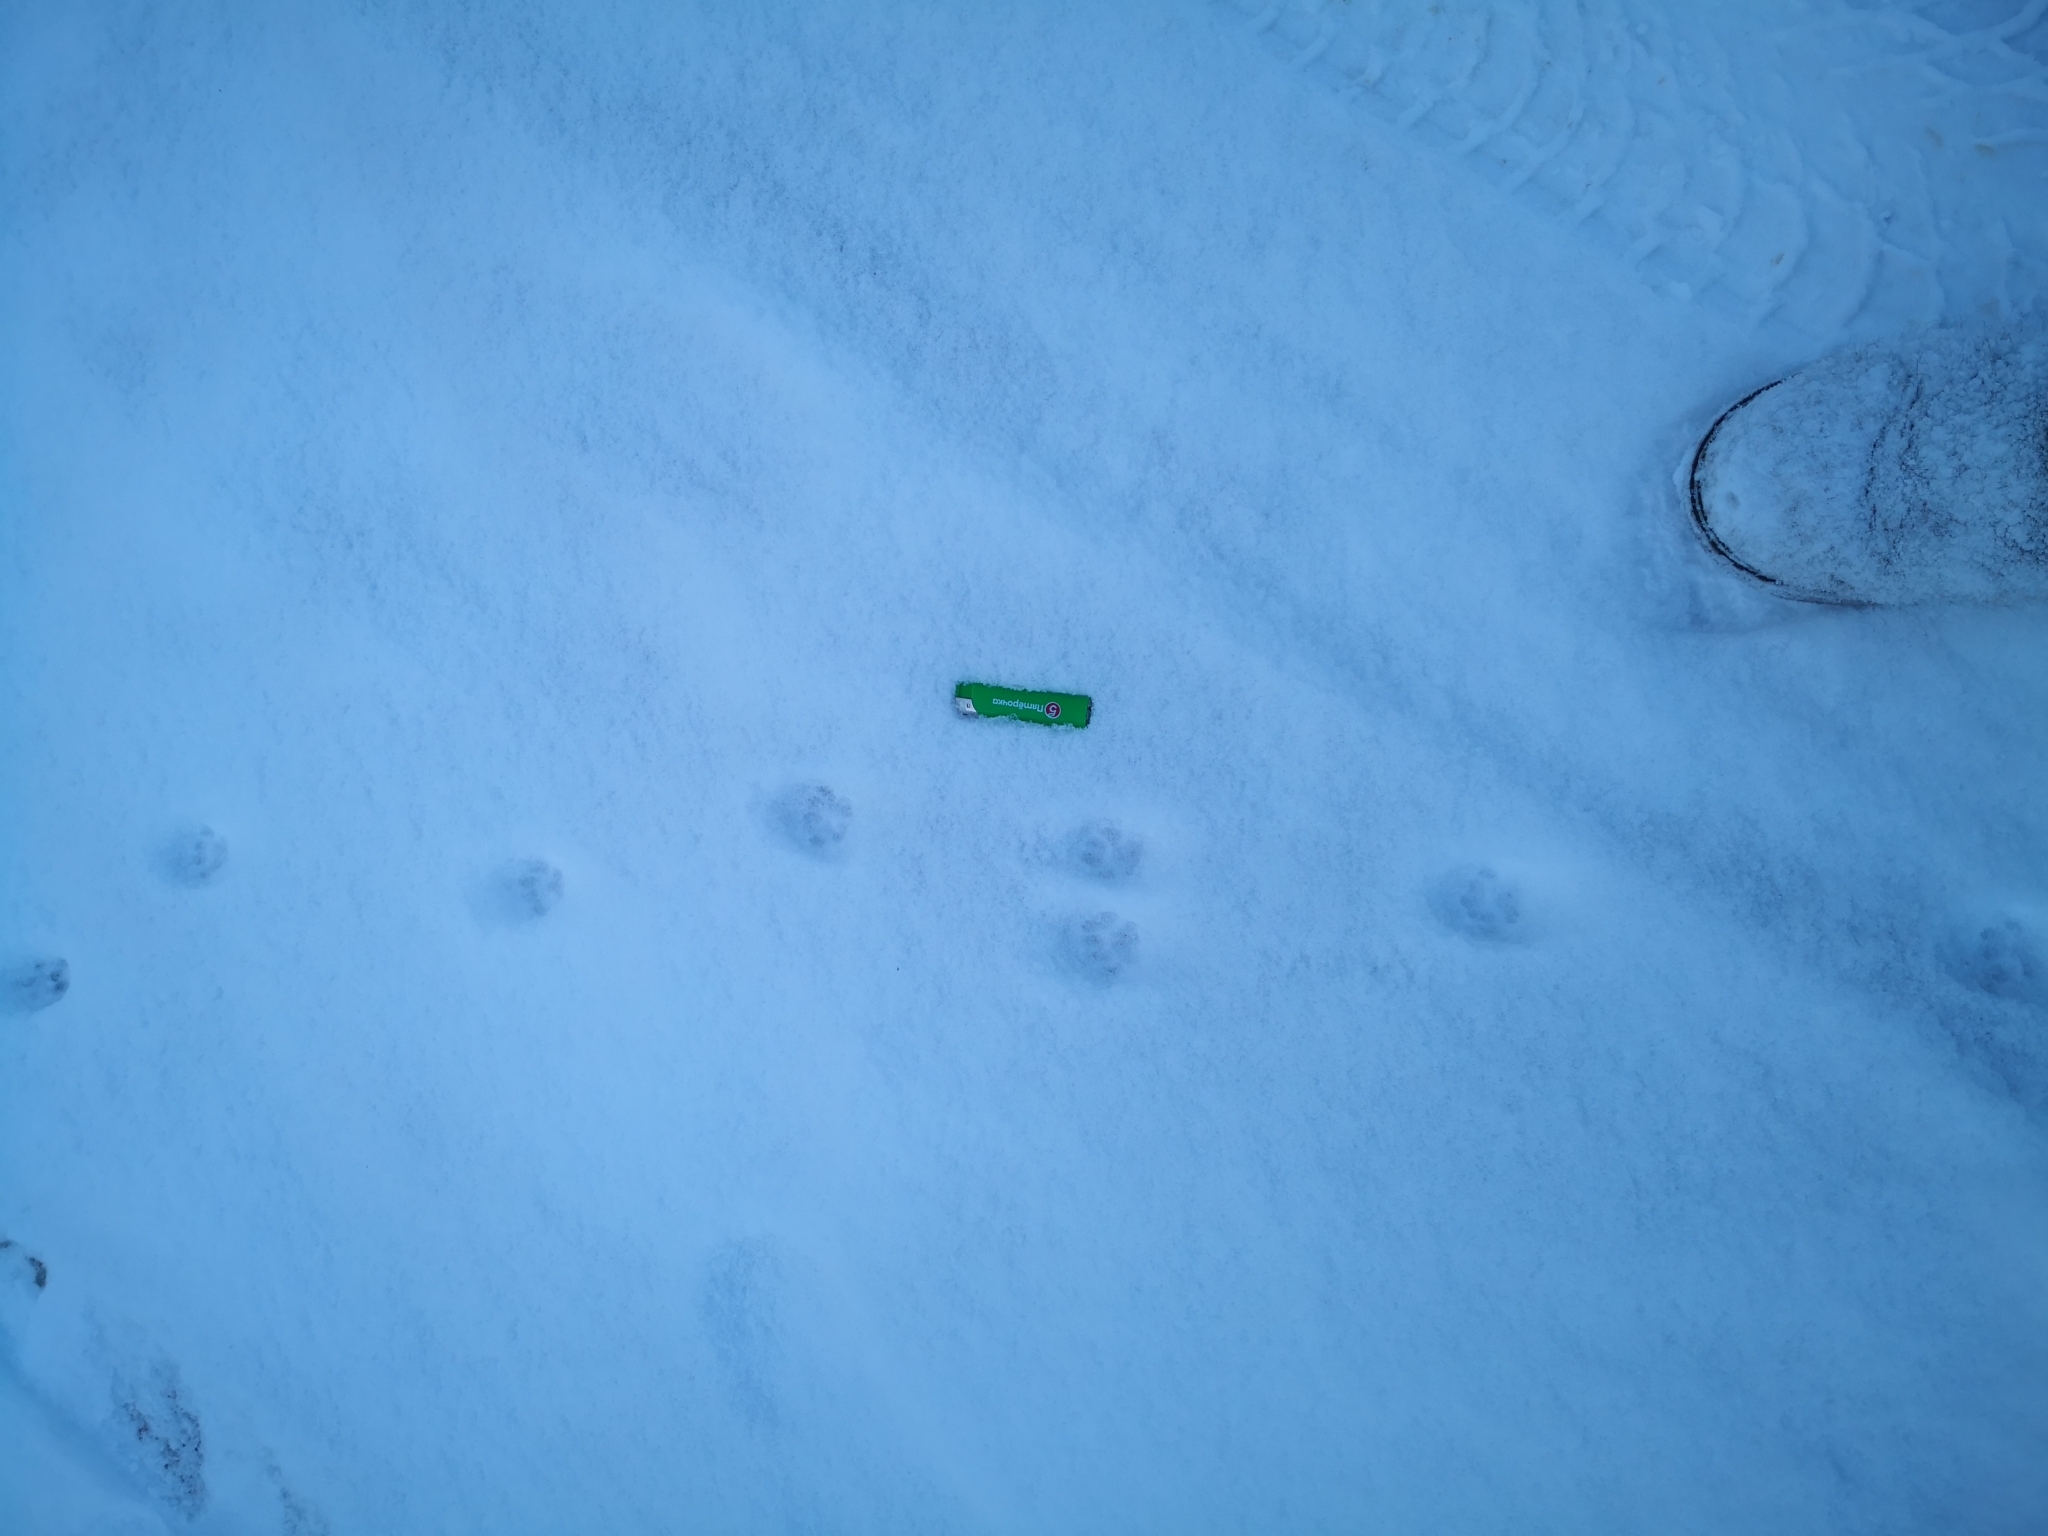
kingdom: Animalia
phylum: Chordata
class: Mammalia
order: Carnivora
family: Felidae
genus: Felis
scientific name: Felis catus
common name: Domestic cat
